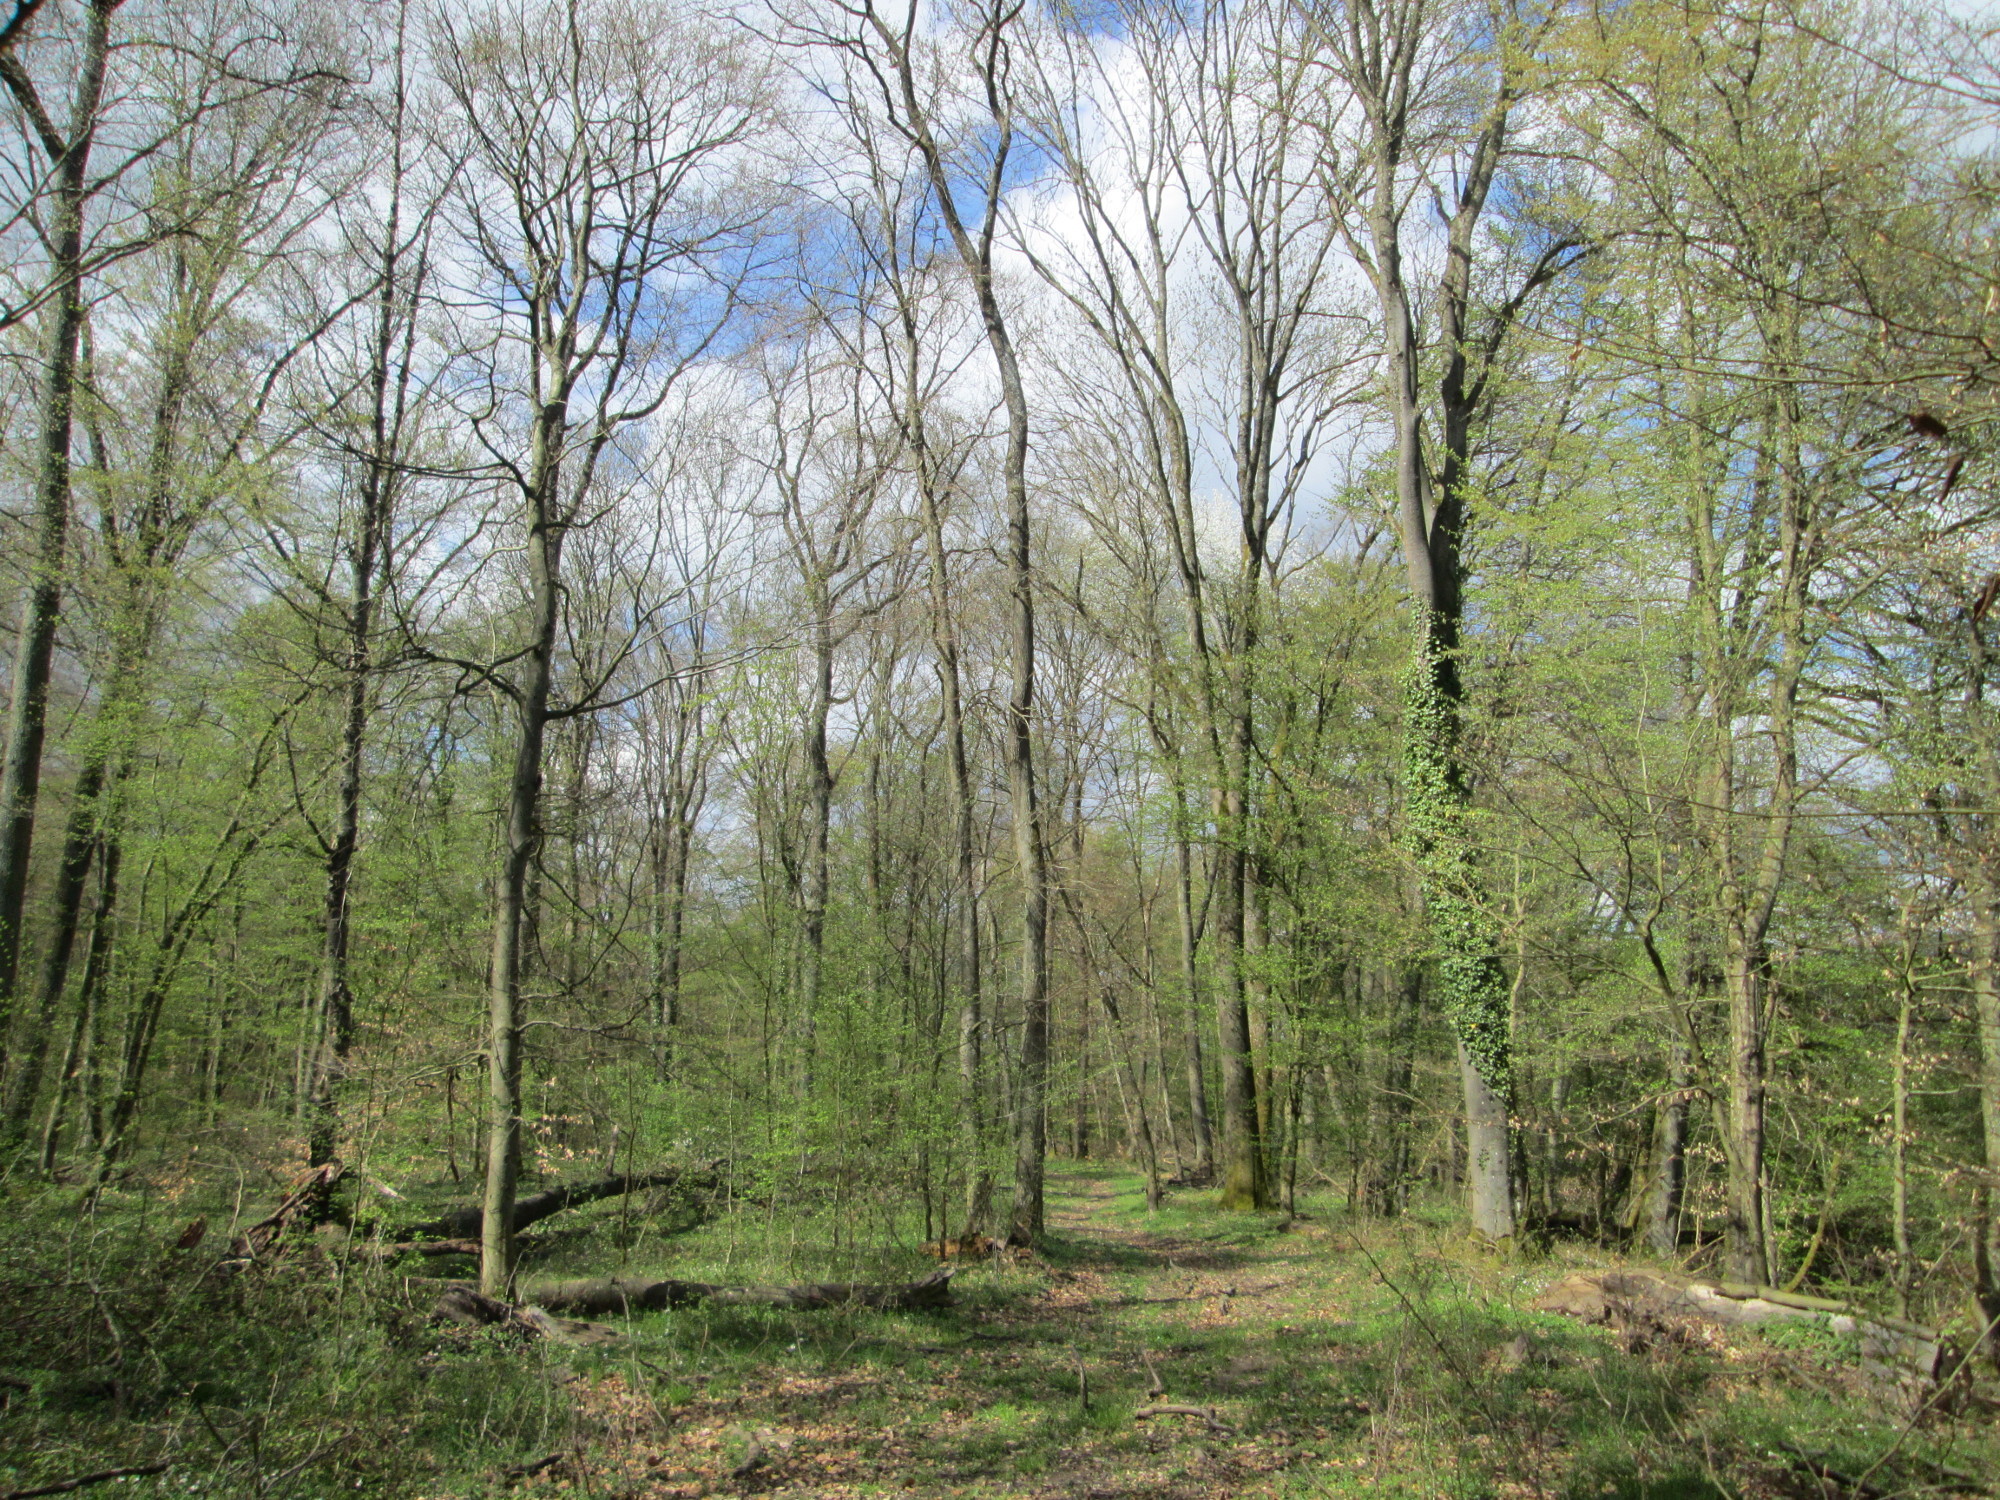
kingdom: Plantae
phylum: Tracheophyta
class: Magnoliopsida
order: Fagales
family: Betulaceae
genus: Carpinus
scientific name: Carpinus betulus
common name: Hornbeam
